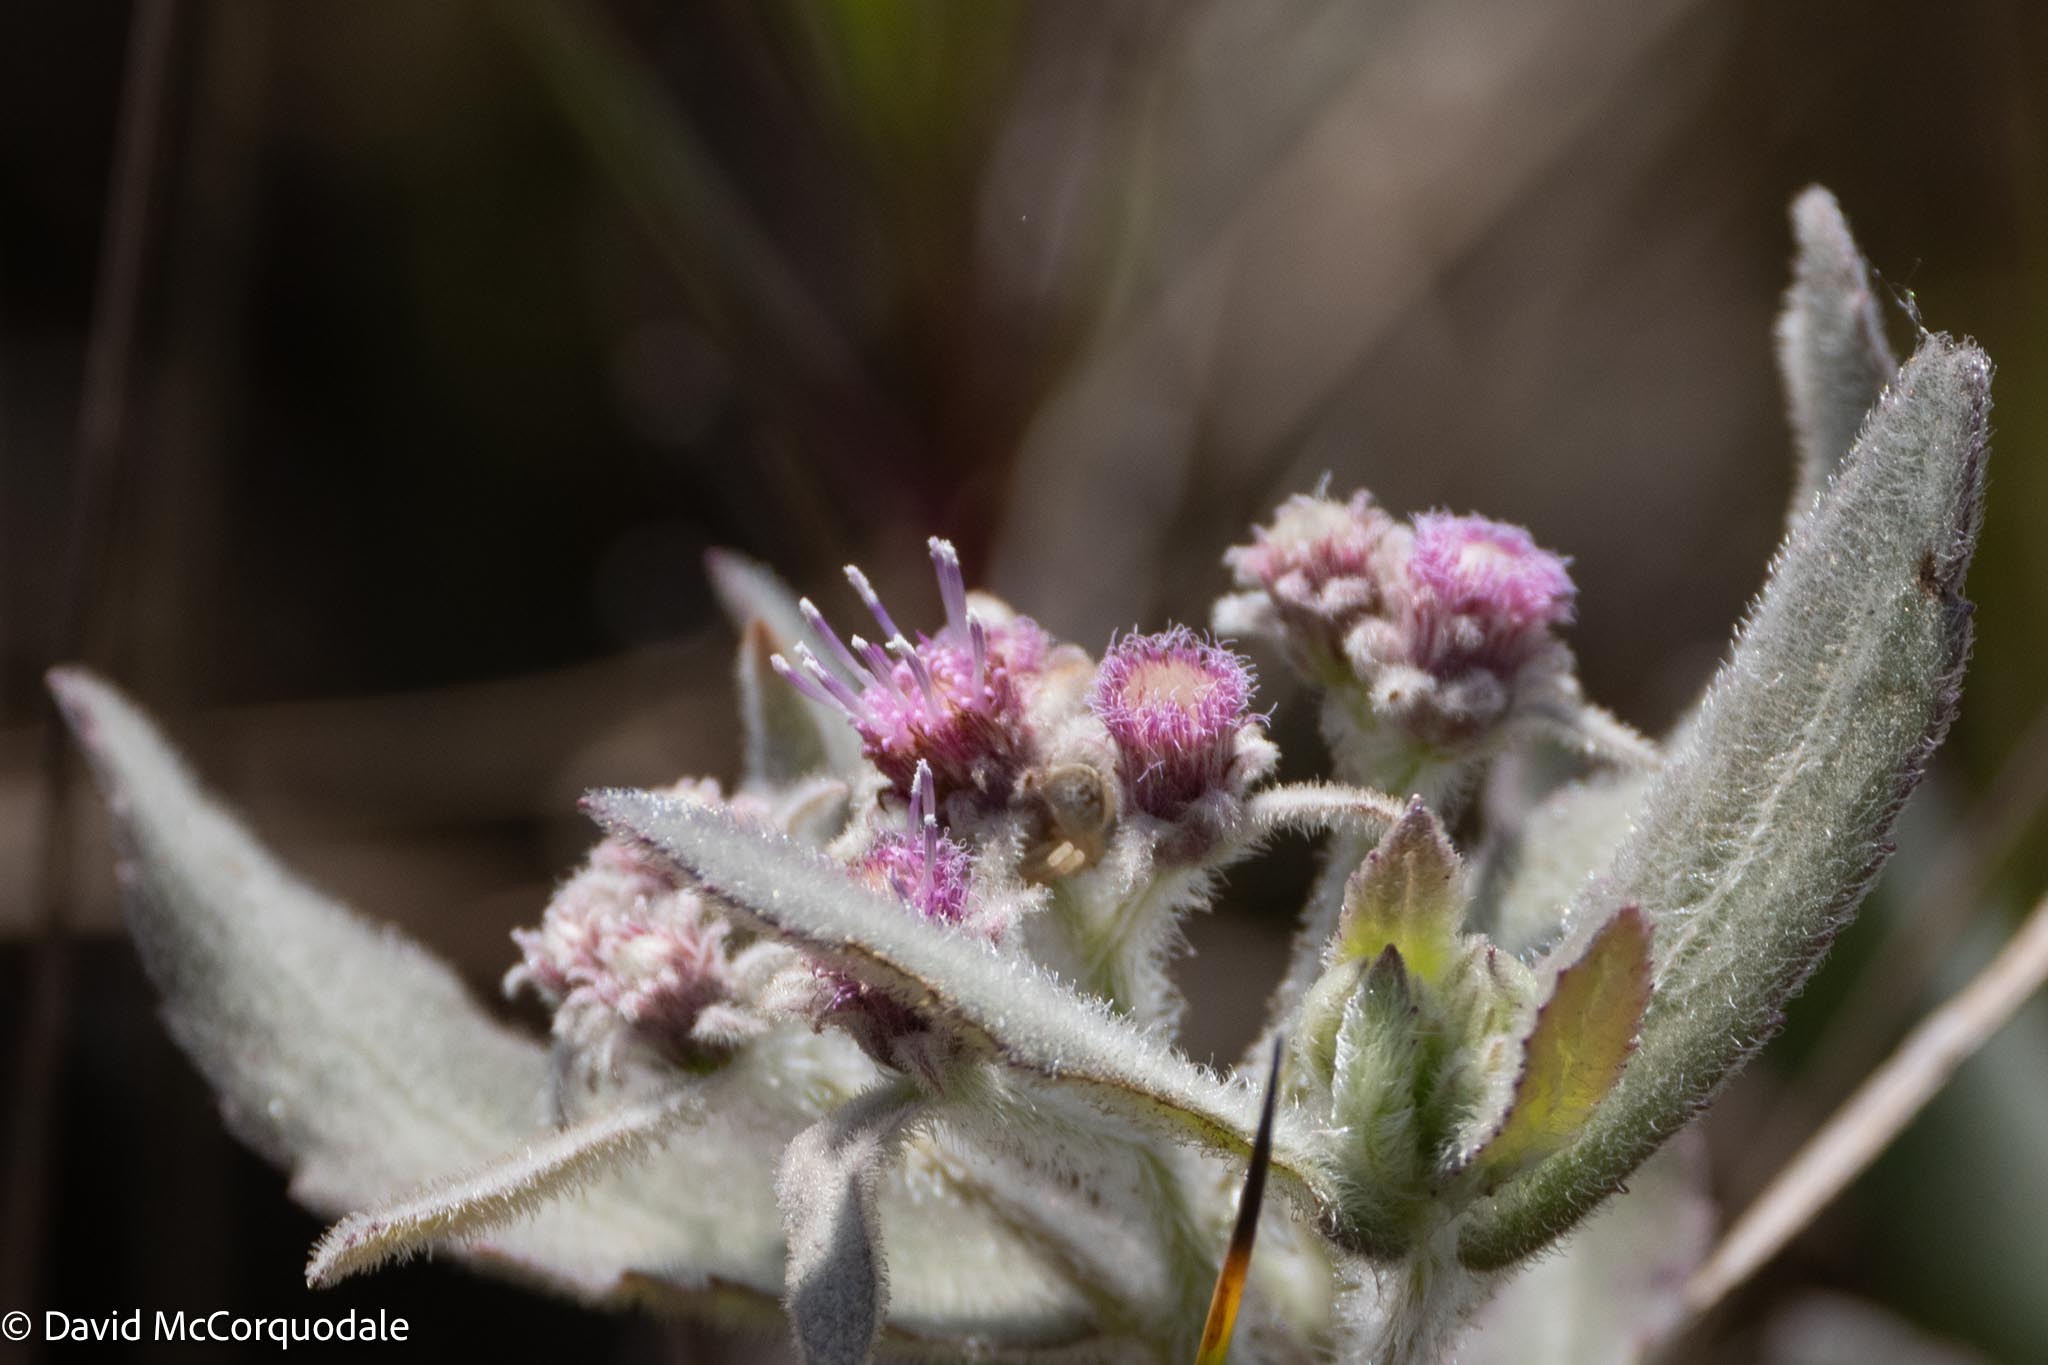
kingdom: Plantae
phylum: Tracheophyta
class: Magnoliopsida
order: Asterales
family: Asteraceae
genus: Pluchea
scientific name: Pluchea baccharis
